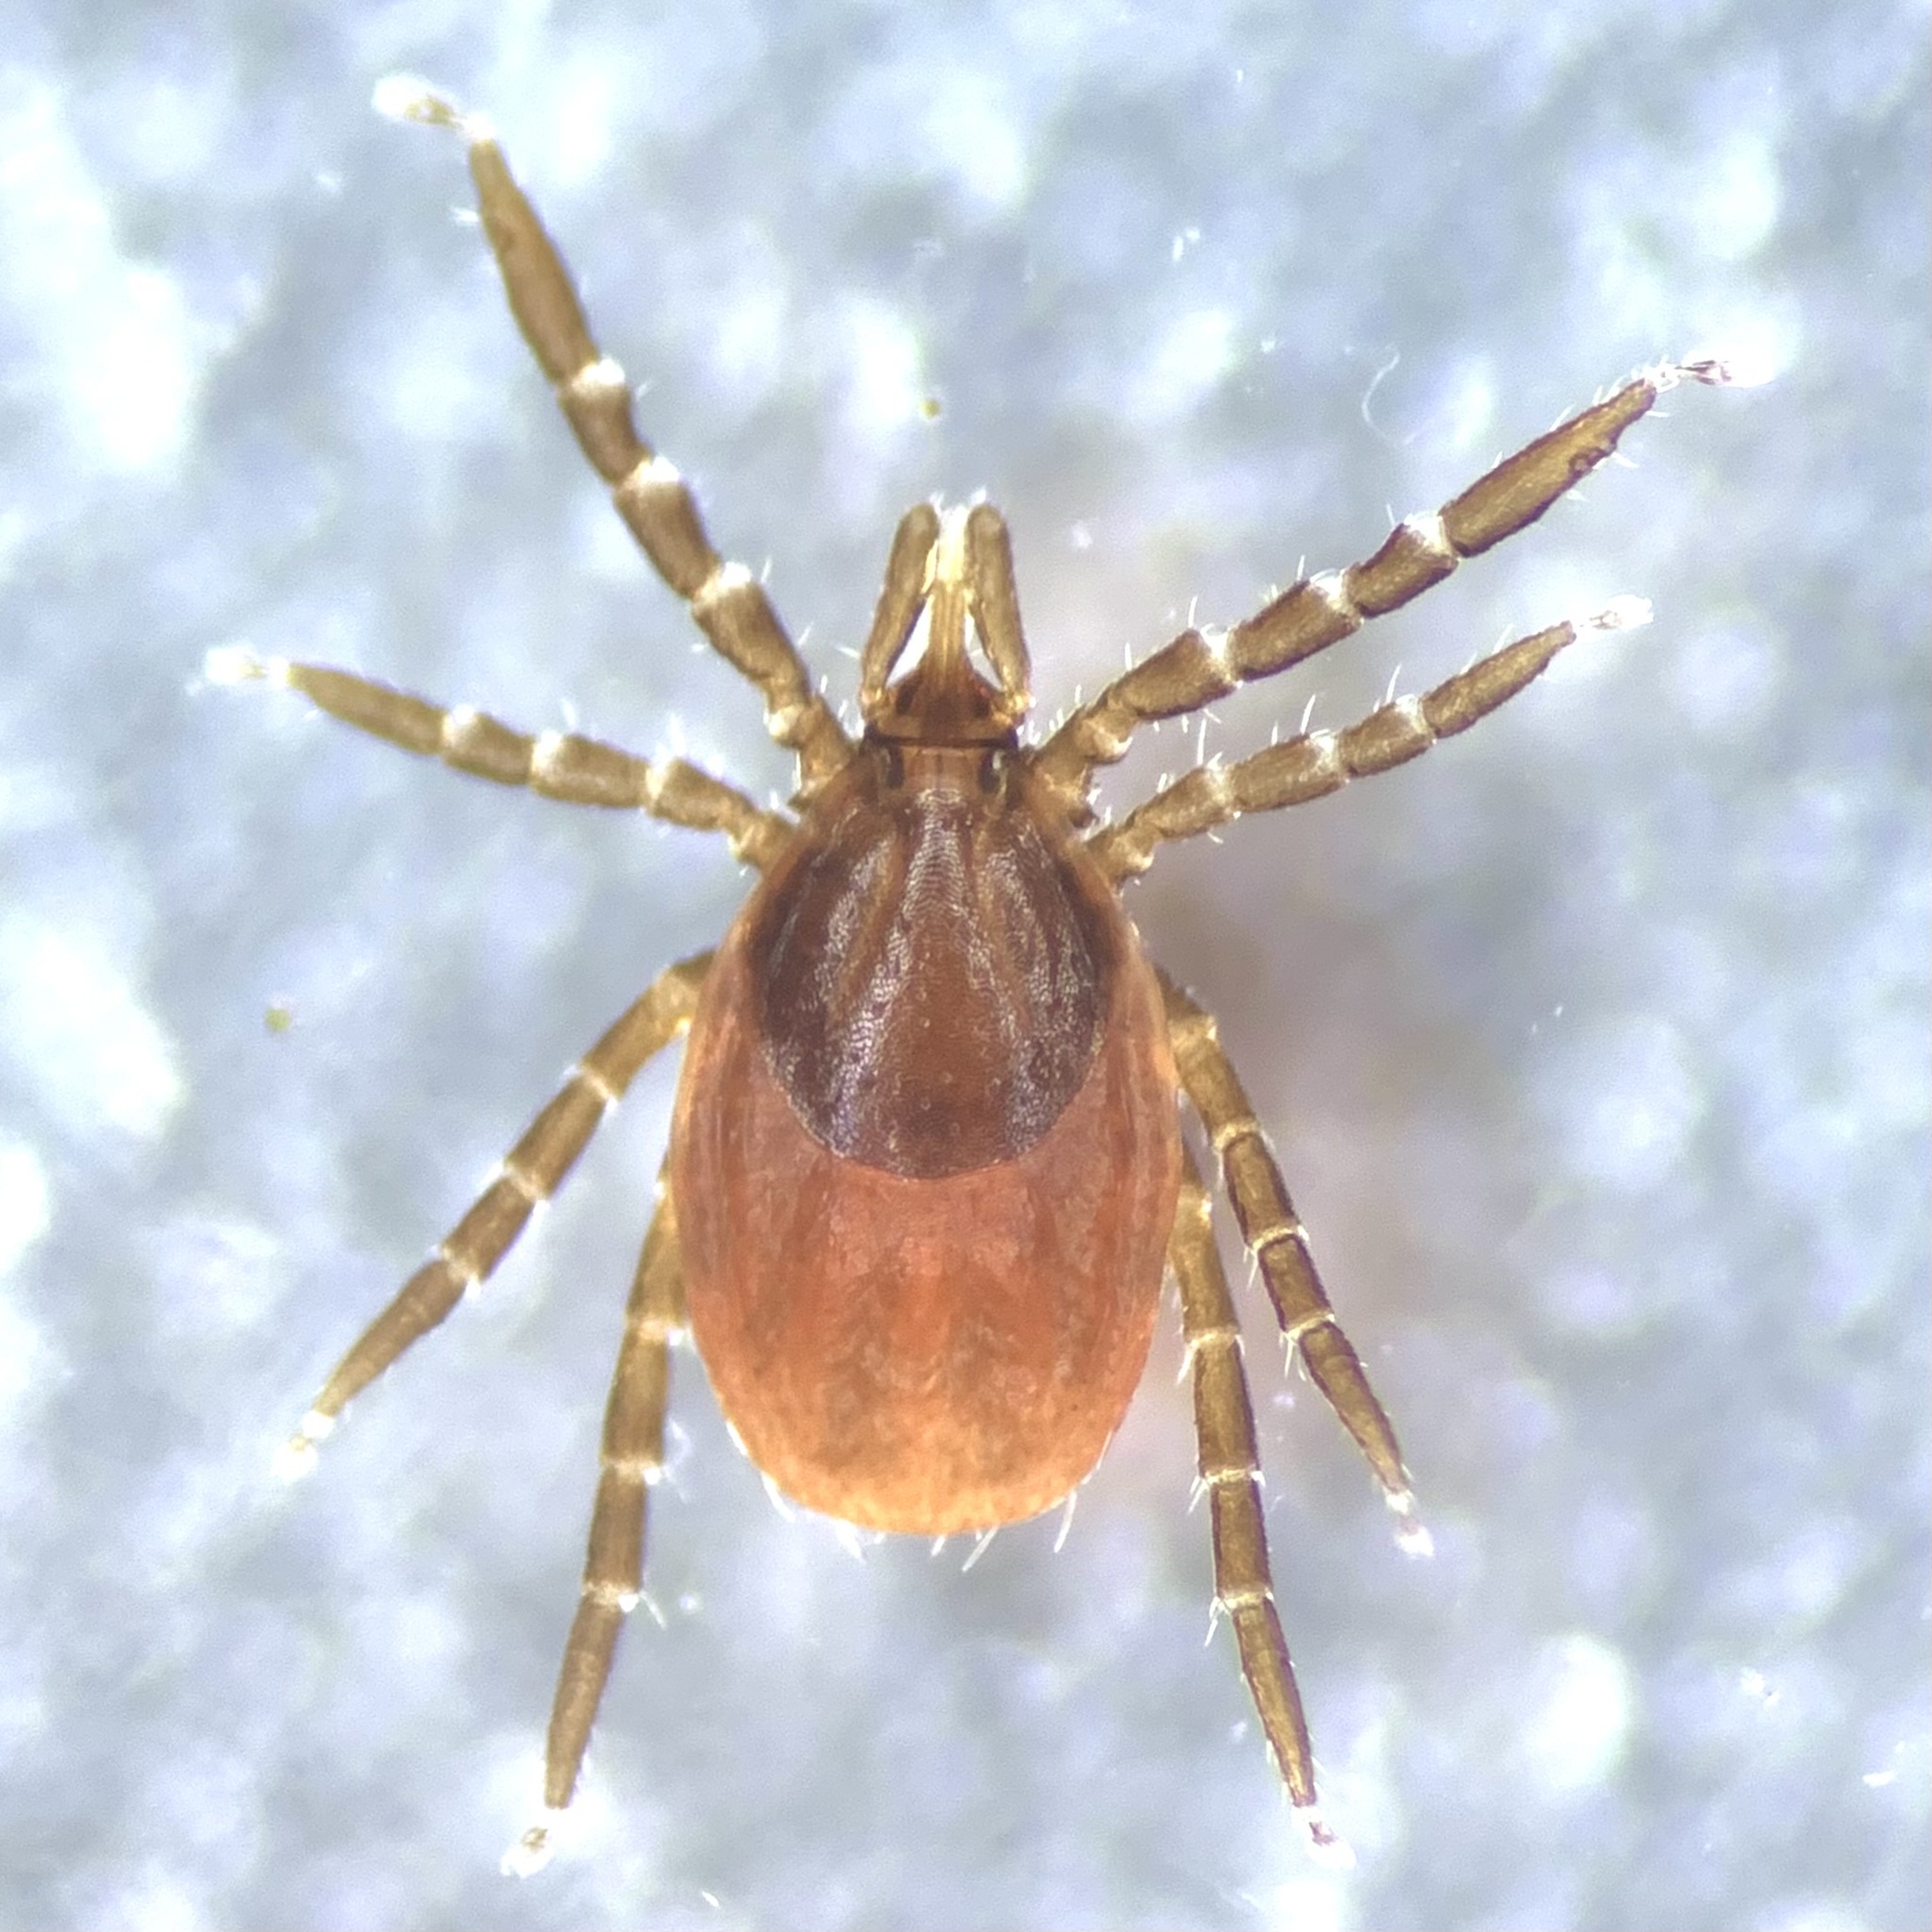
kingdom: Animalia
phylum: Arthropoda
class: Arachnida
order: Ixodida
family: Ixodidae
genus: Ixodes
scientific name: Ixodes ricinus
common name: Castor bean tick
